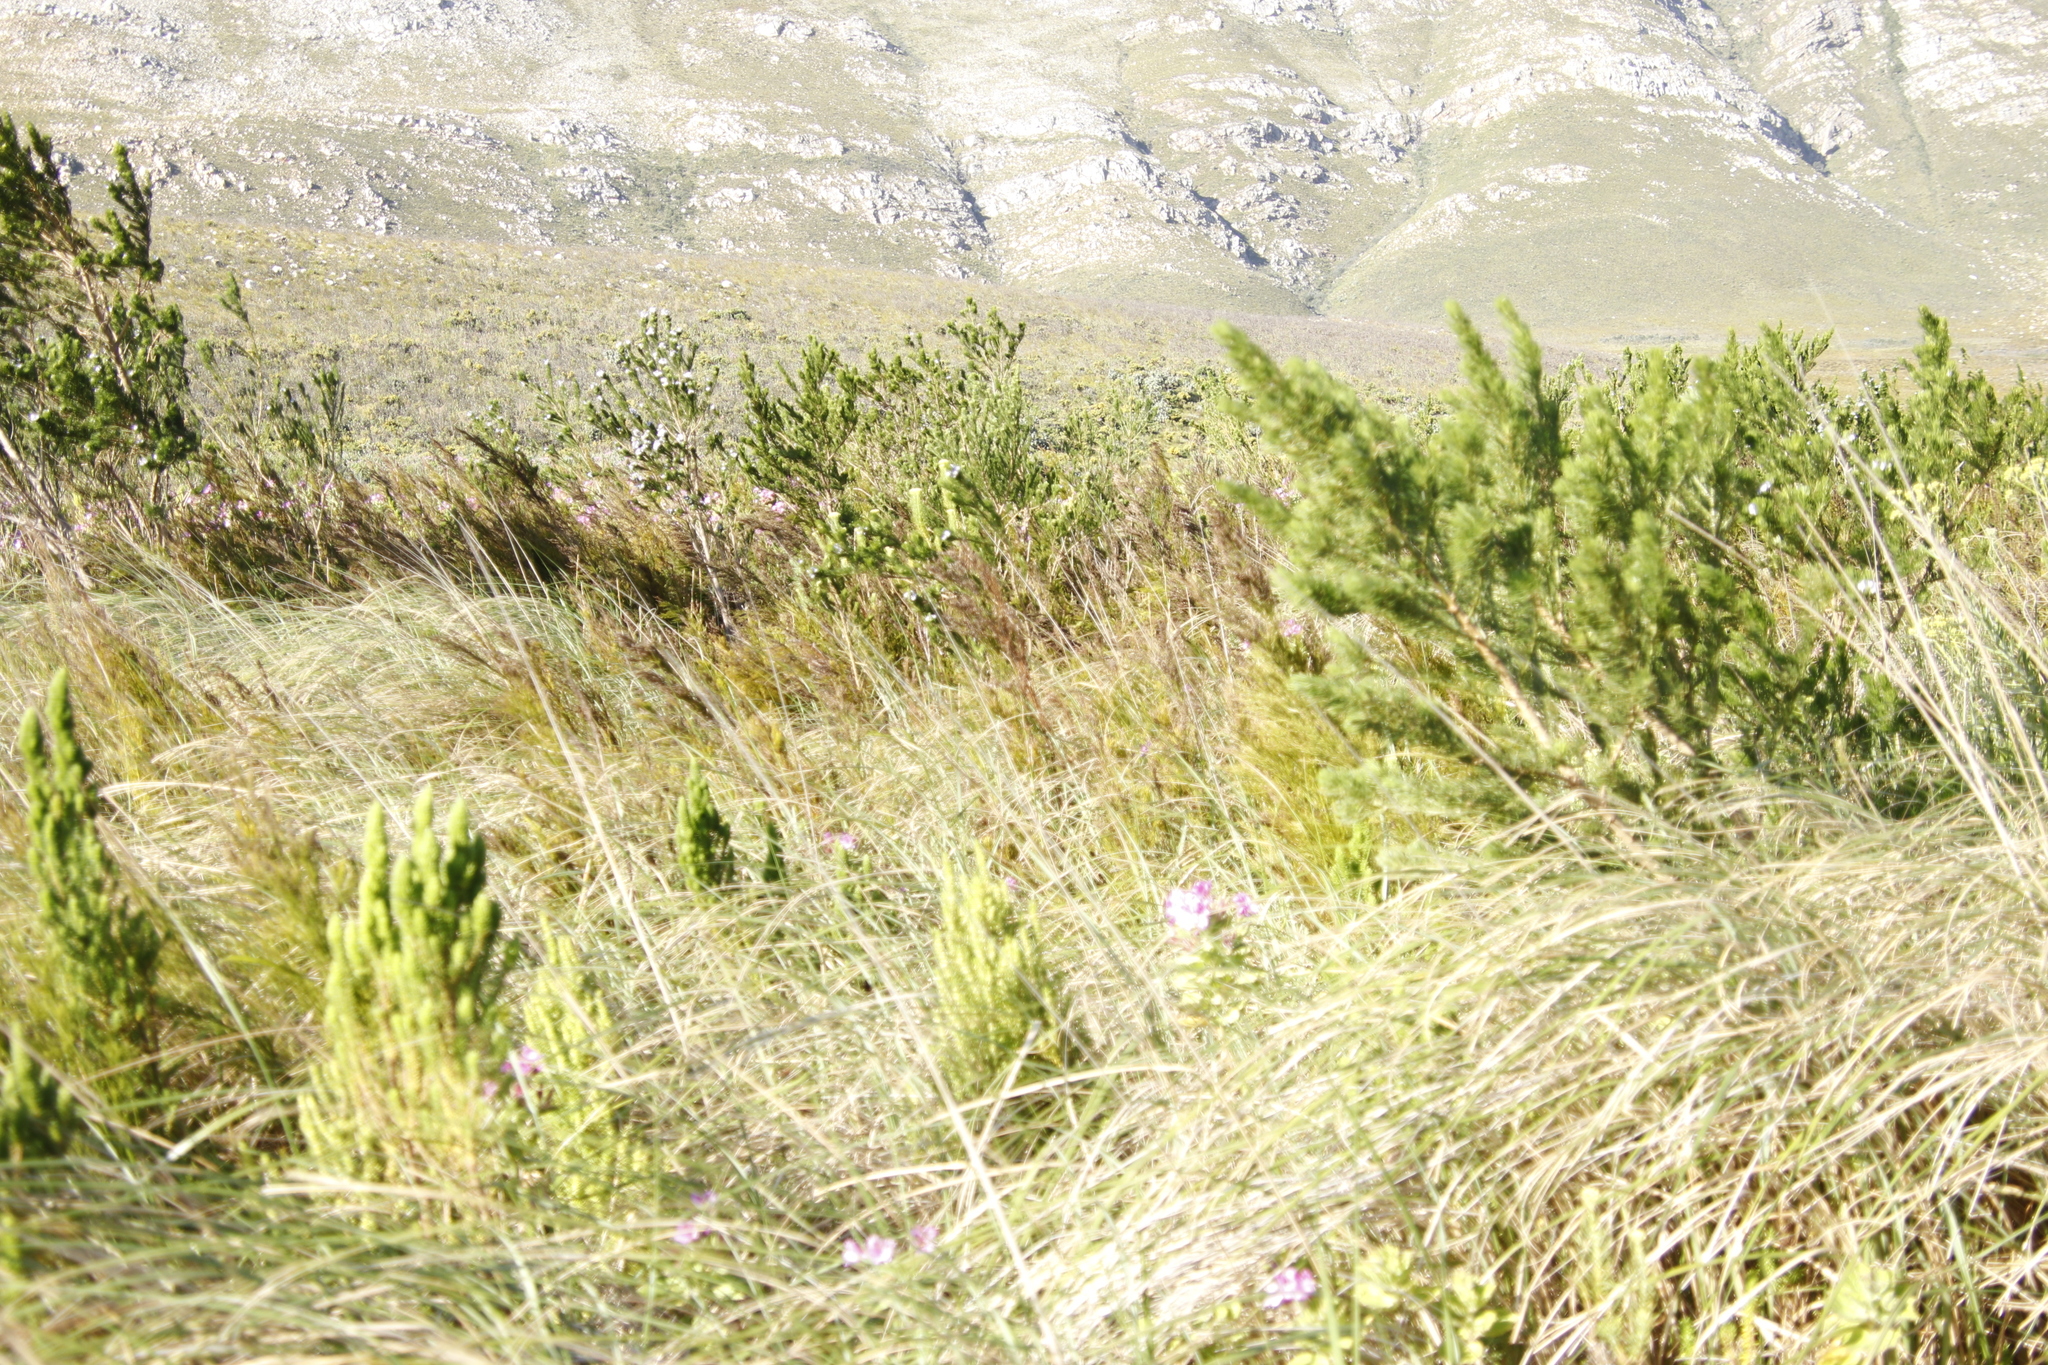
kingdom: Plantae
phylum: Tracheophyta
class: Magnoliopsida
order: Fabales
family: Fabaceae
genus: Psoralea
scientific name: Psoralea ivumba
